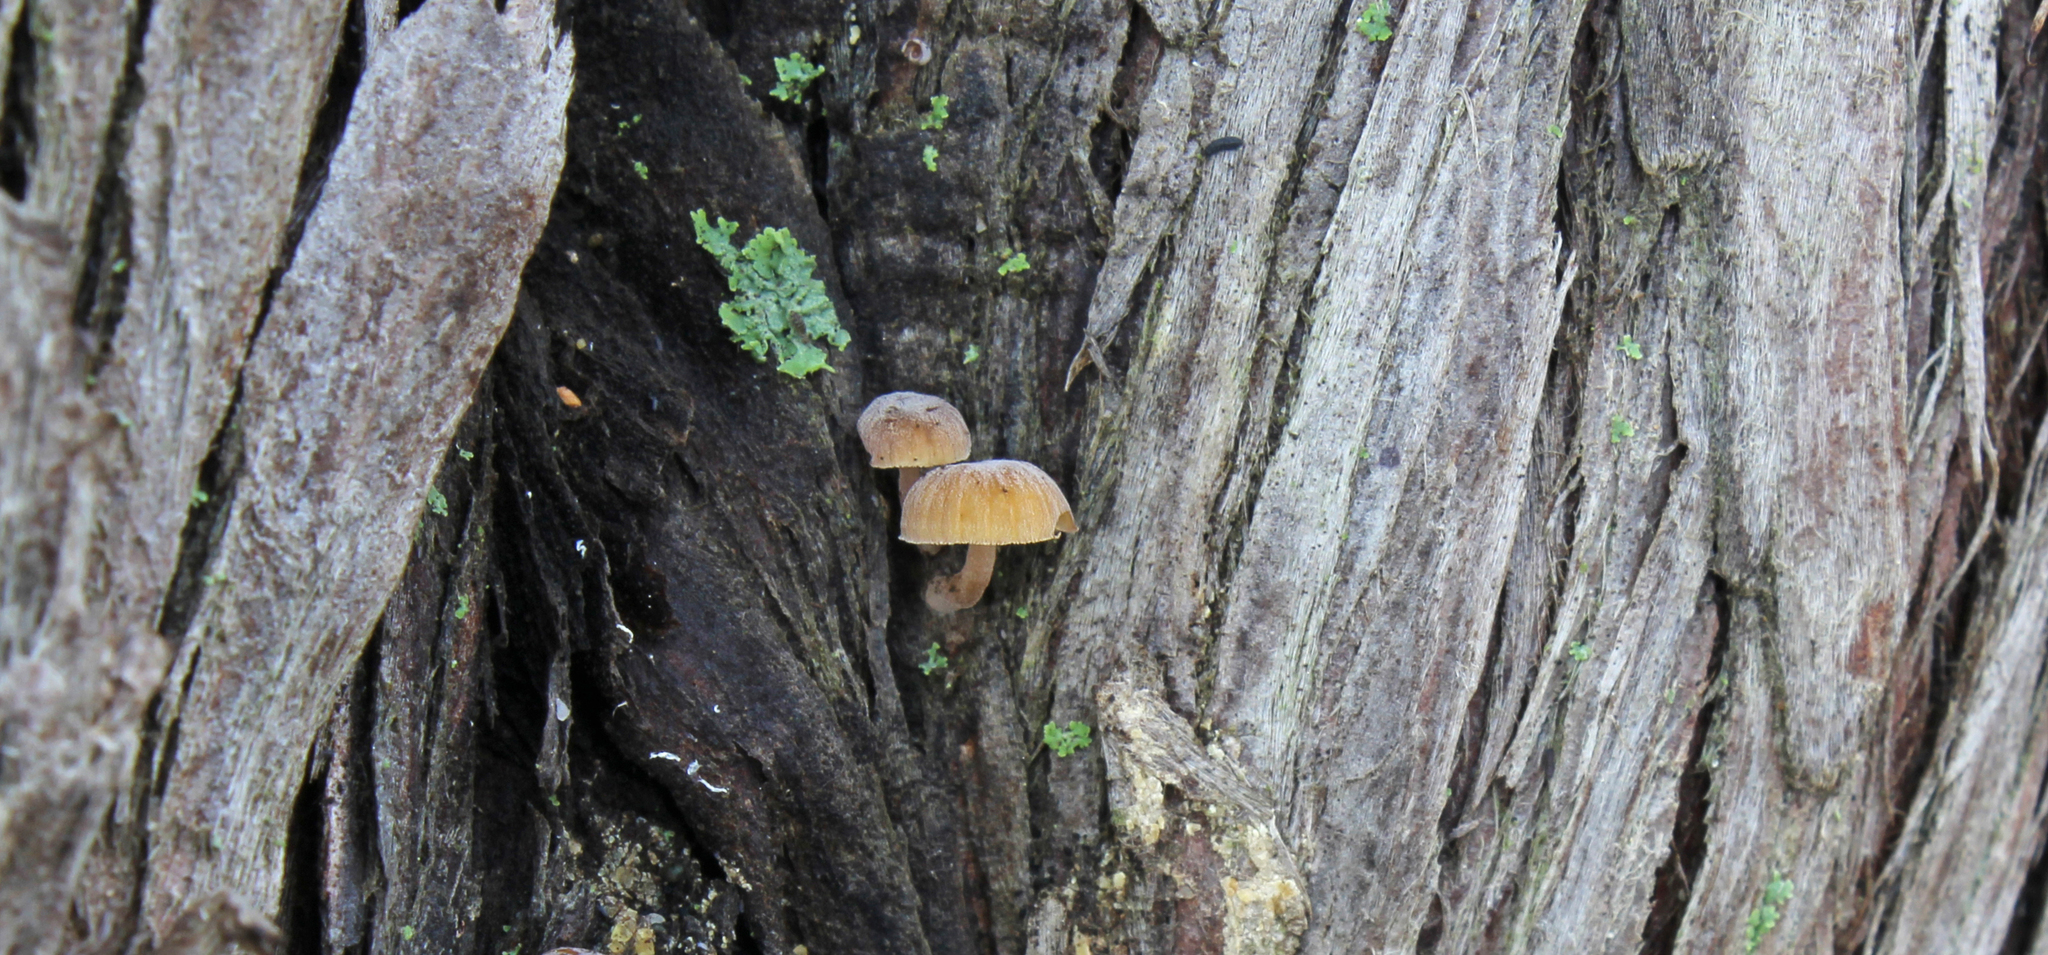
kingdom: Fungi
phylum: Basidiomycota
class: Agaricomycetes
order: Agaricales
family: Mycenaceae
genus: Mycena
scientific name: Mycena juniperina
